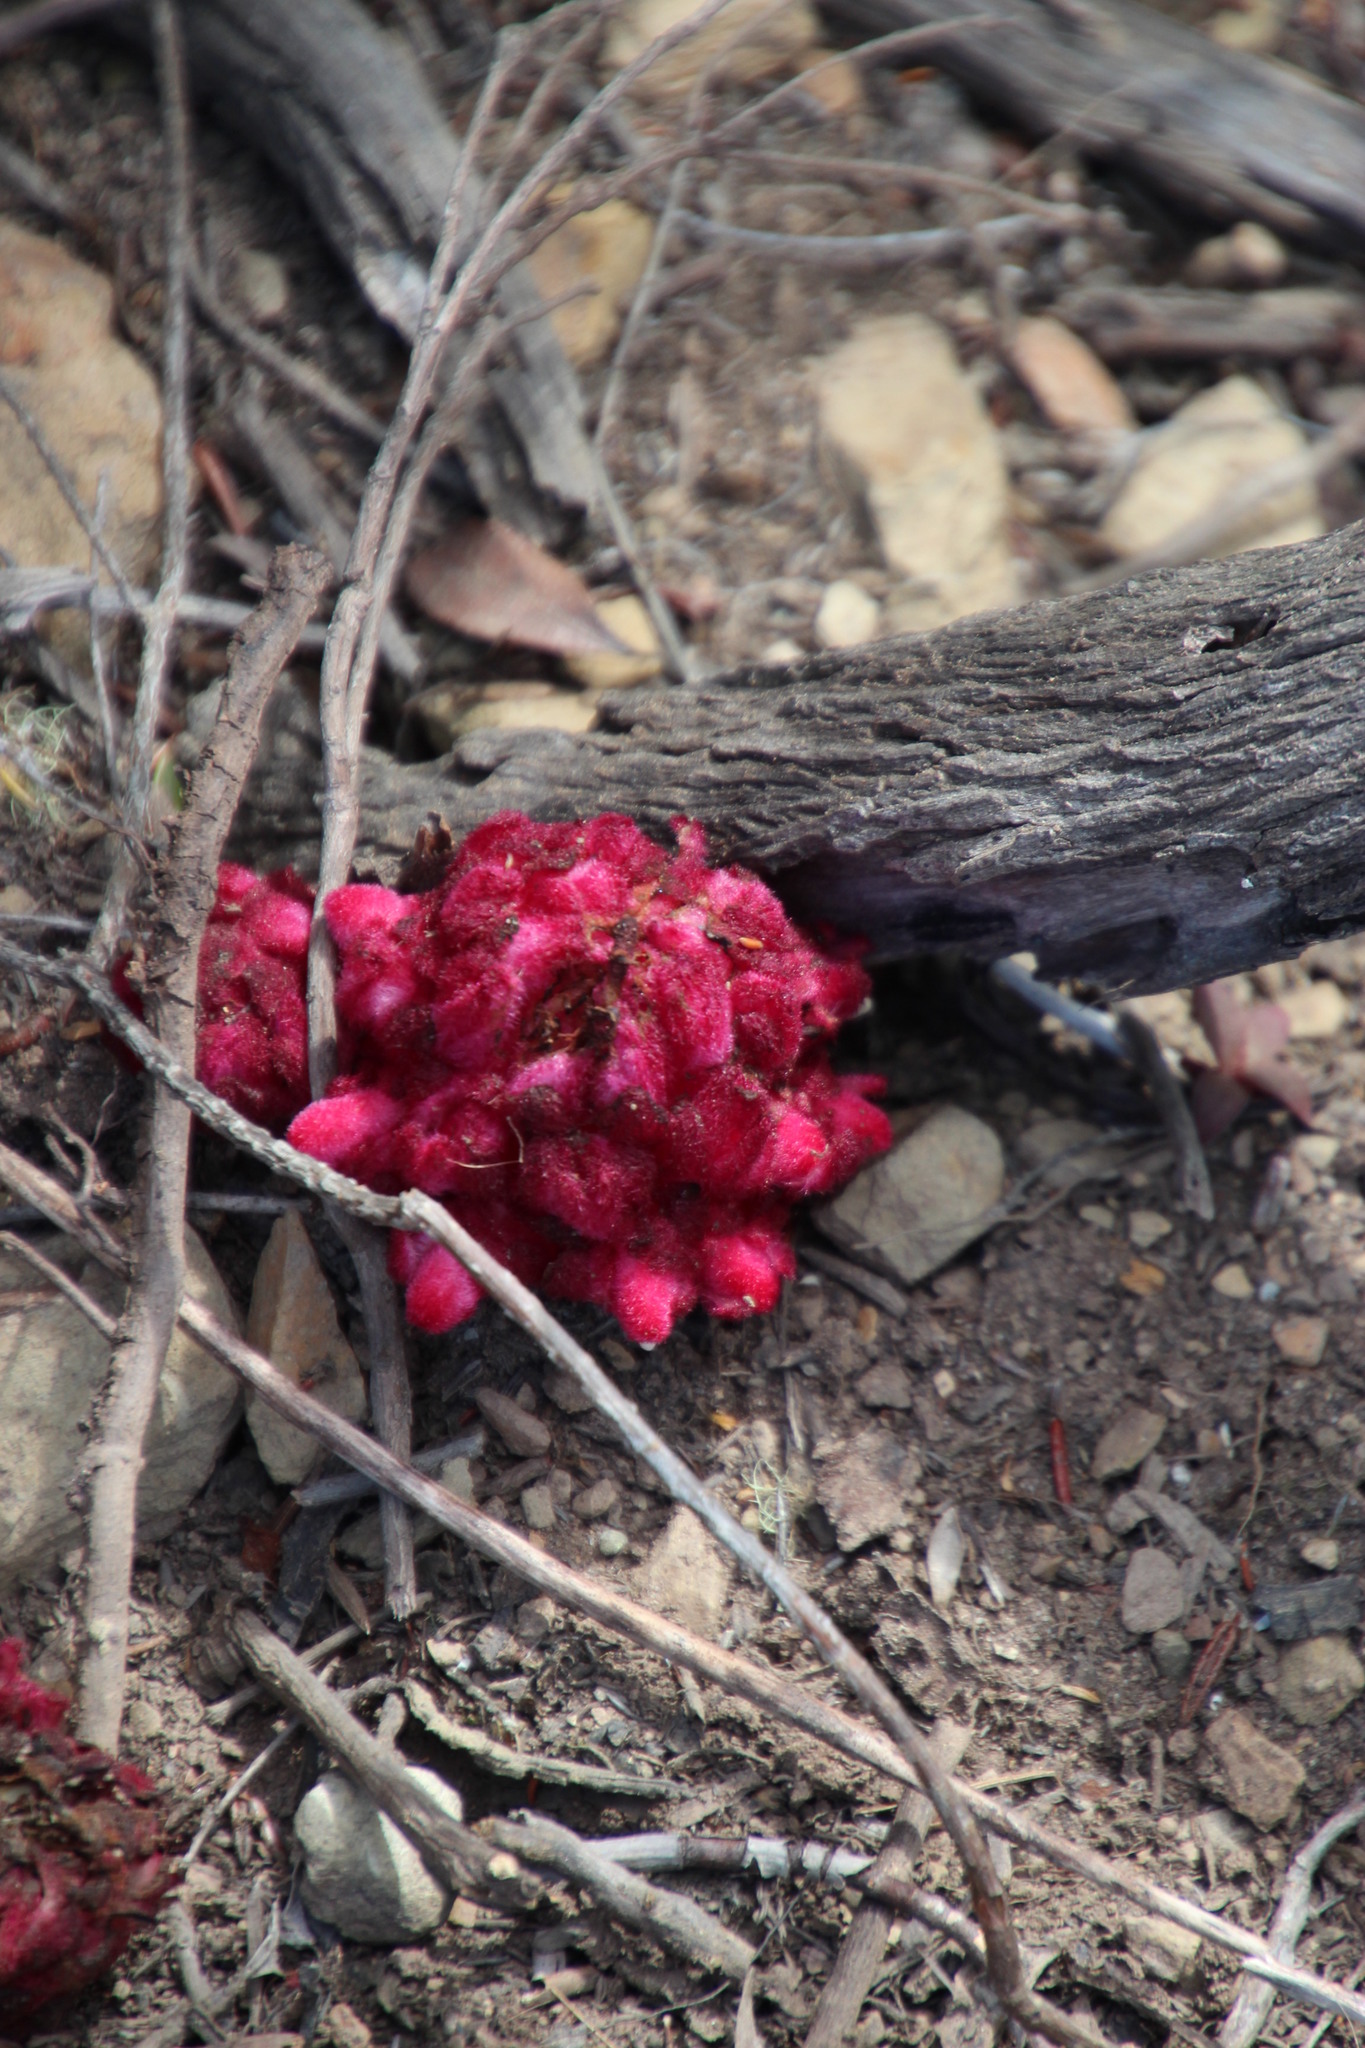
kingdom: Plantae
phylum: Tracheophyta
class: Magnoliopsida
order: Lamiales
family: Orobanchaceae
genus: Hyobanche
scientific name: Hyobanche sanguinea
